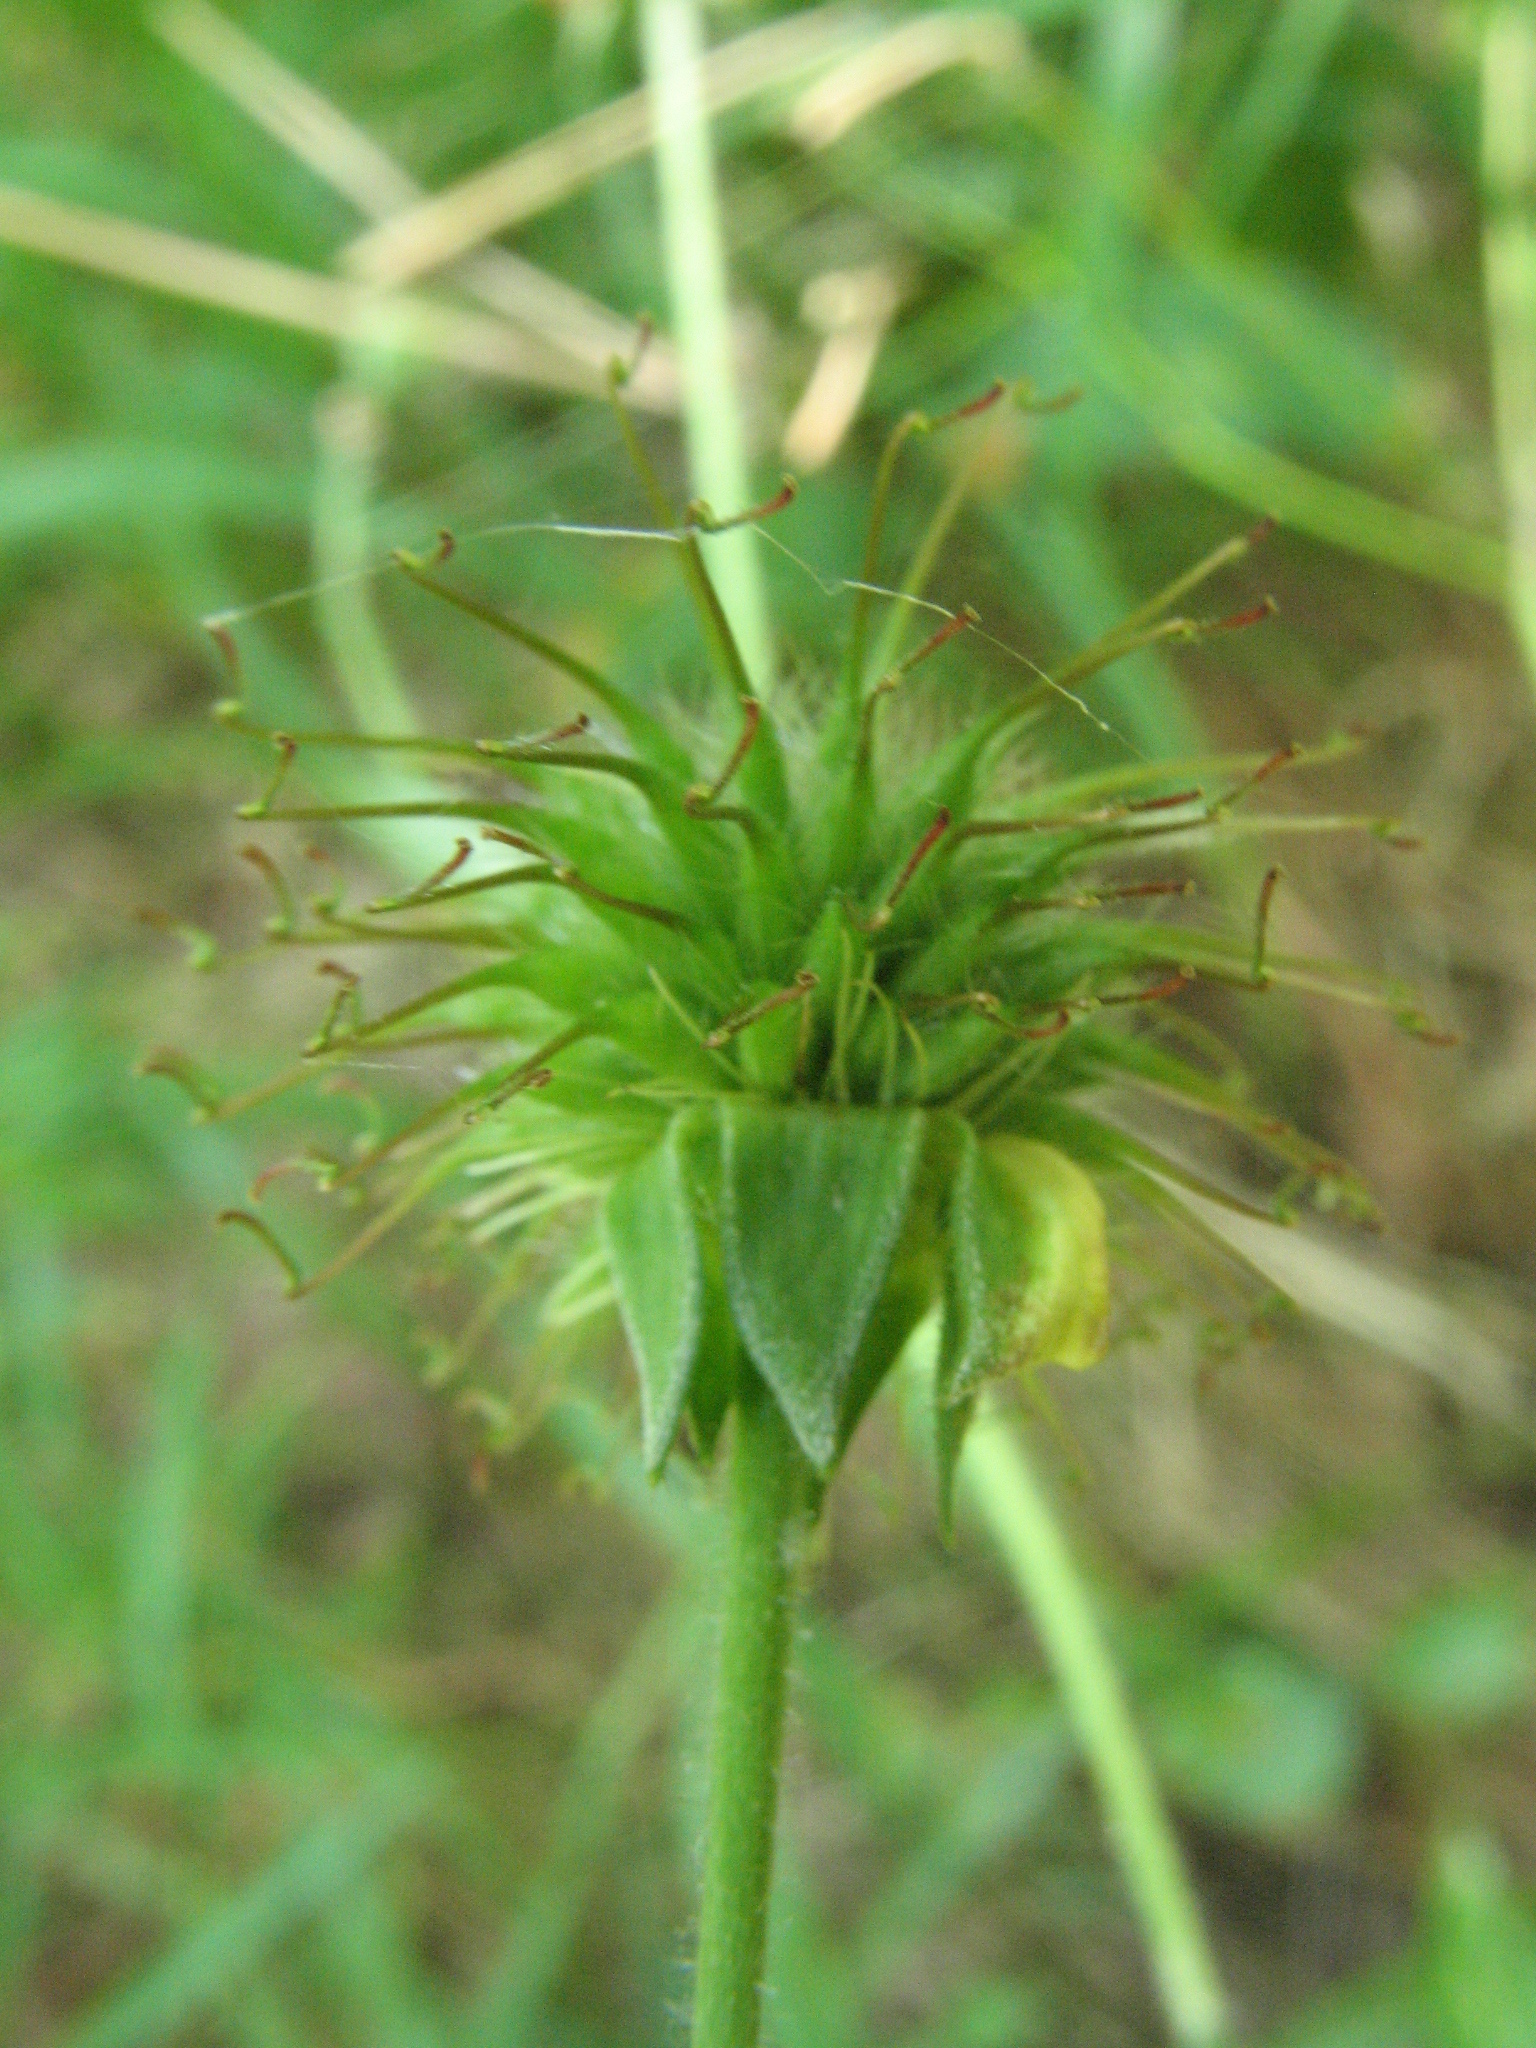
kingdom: Plantae
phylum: Tracheophyta
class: Magnoliopsida
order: Rosales
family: Rosaceae
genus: Geum
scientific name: Geum urbanum
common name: Wood avens
